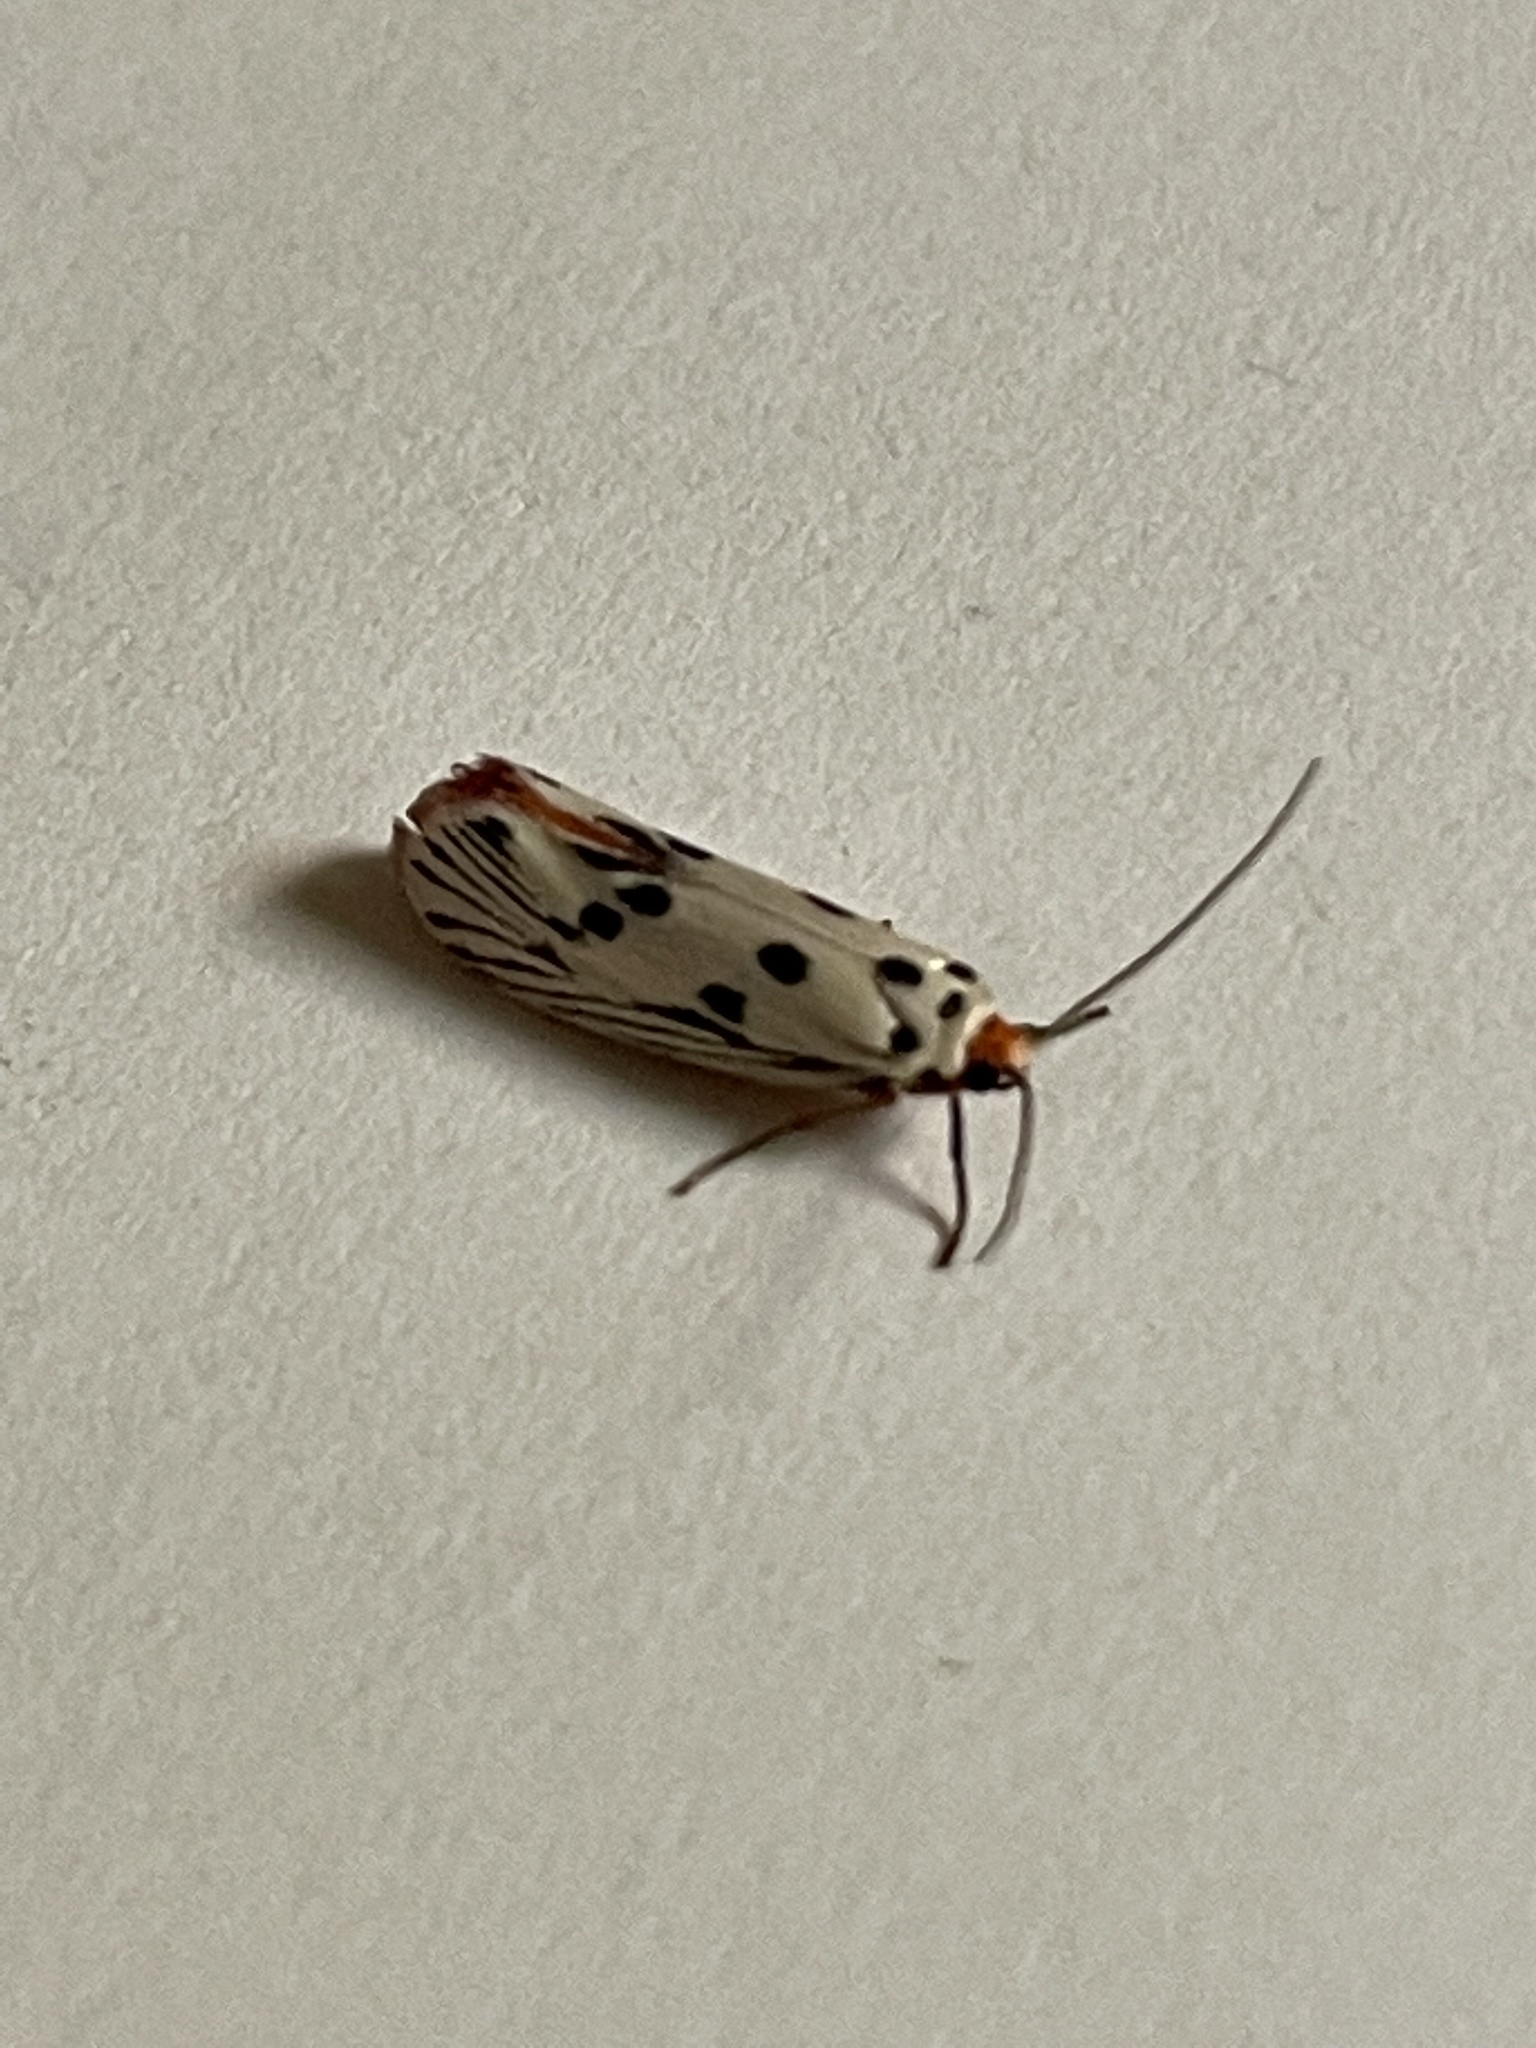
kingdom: Animalia
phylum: Arthropoda
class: Insecta
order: Lepidoptera
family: Lacturidae
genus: Lactura
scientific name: Lactura
